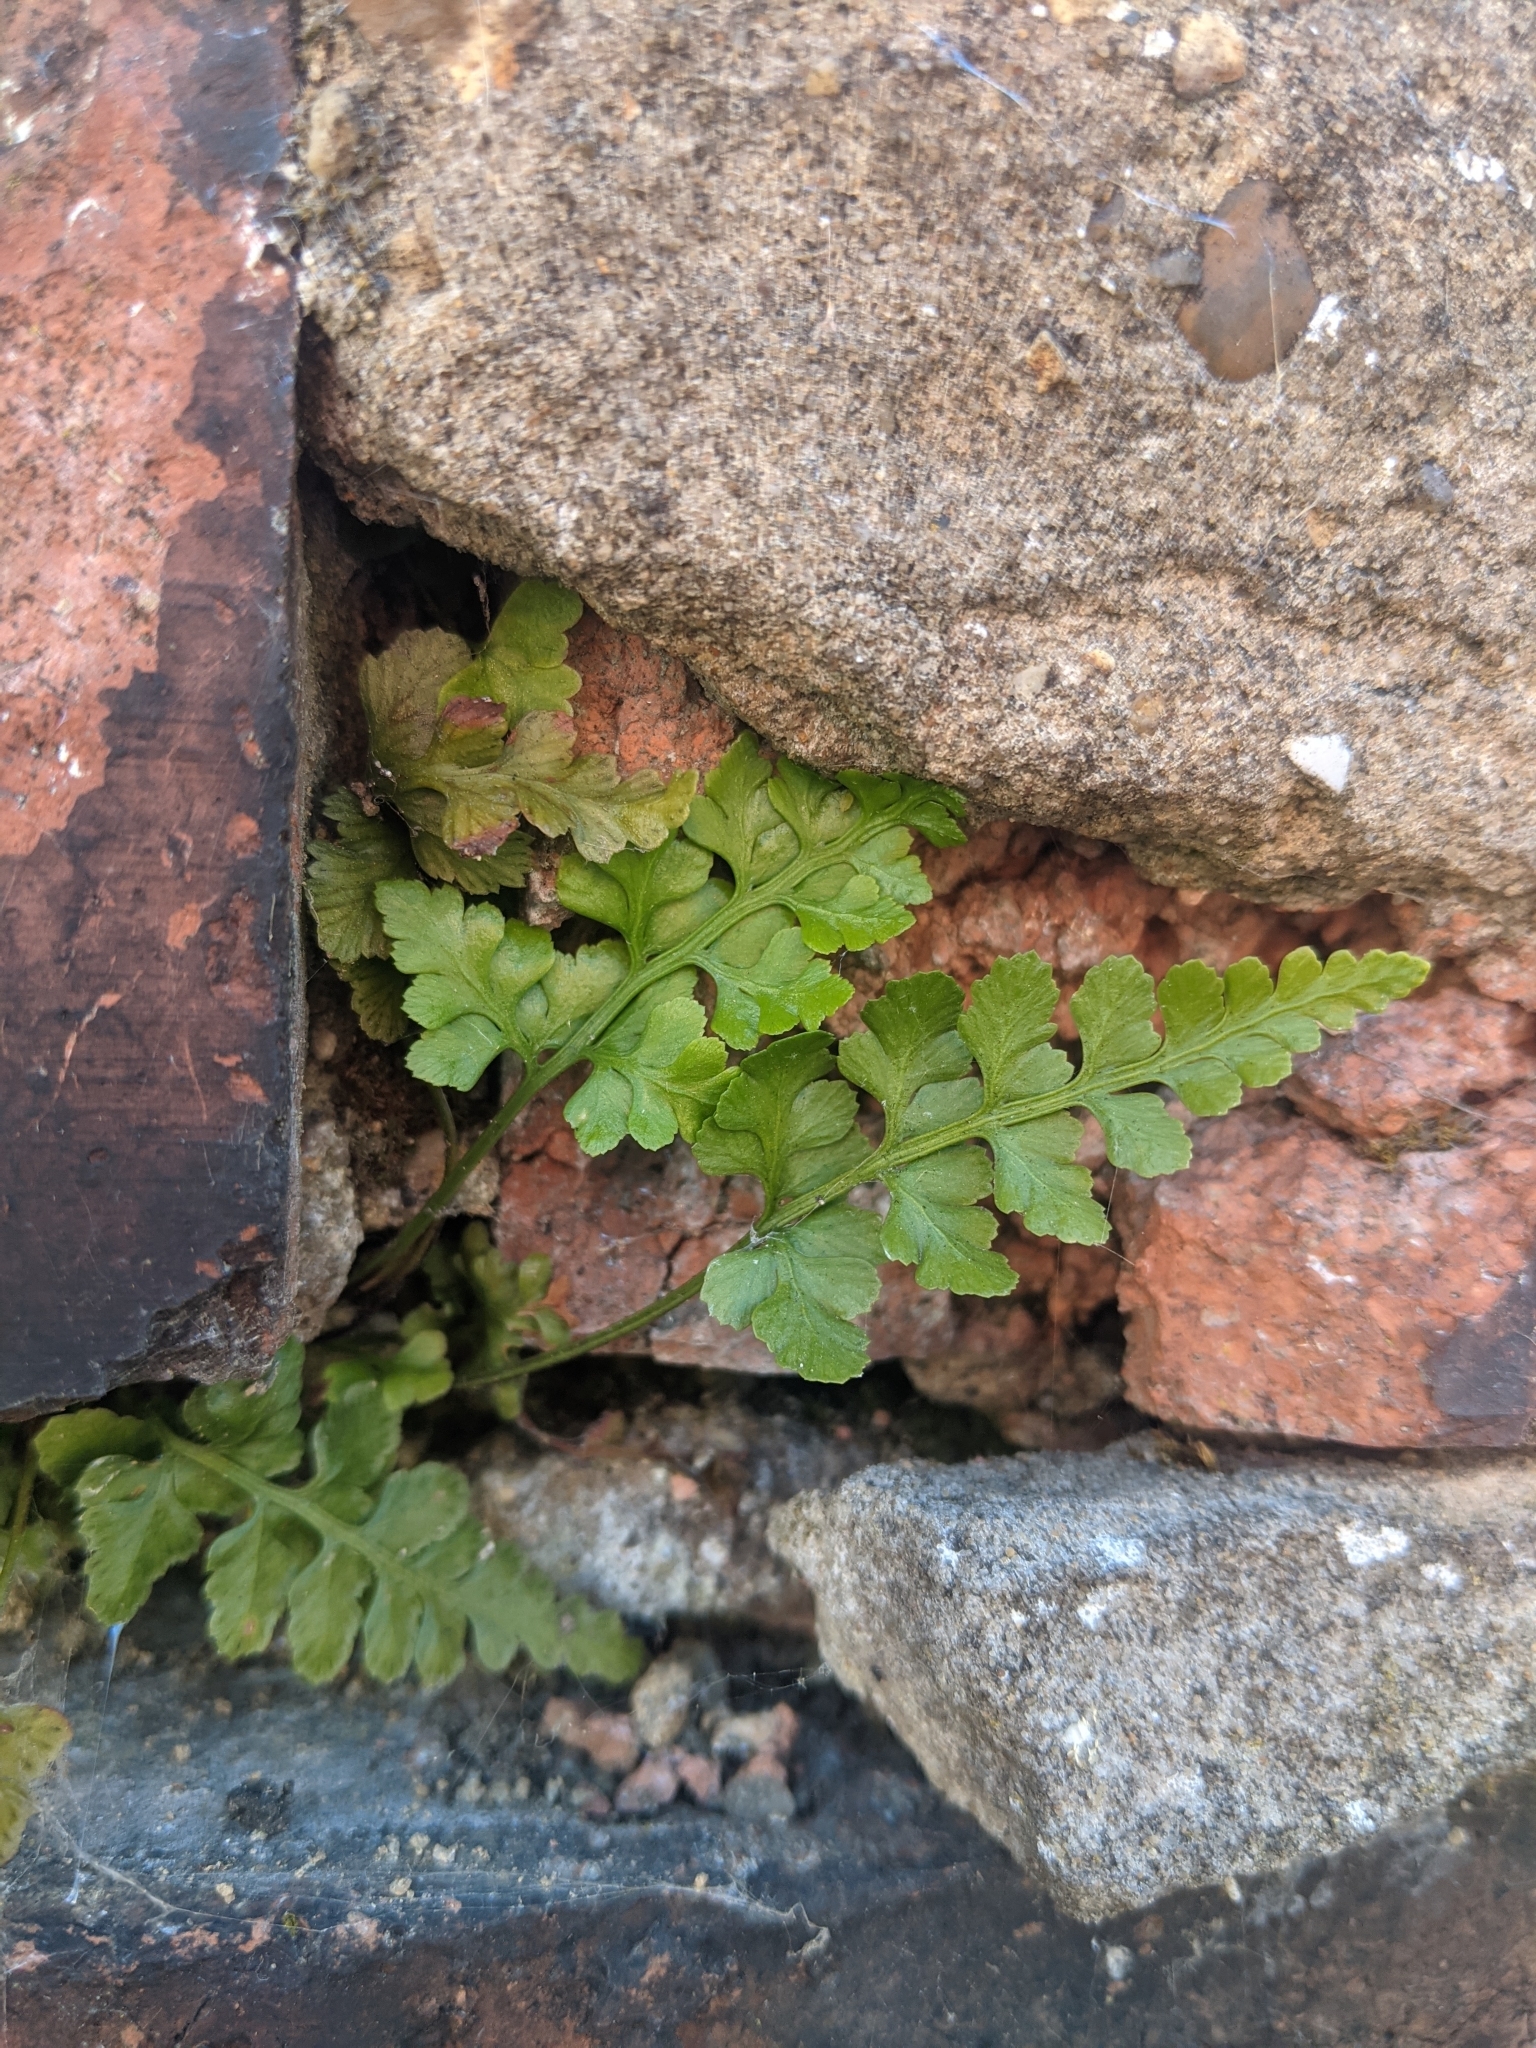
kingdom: Plantae
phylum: Tracheophyta
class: Polypodiopsida
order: Polypodiales
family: Aspleniaceae
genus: Asplenium
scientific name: Asplenium adiantum-nigrum
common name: Black spleenwort
